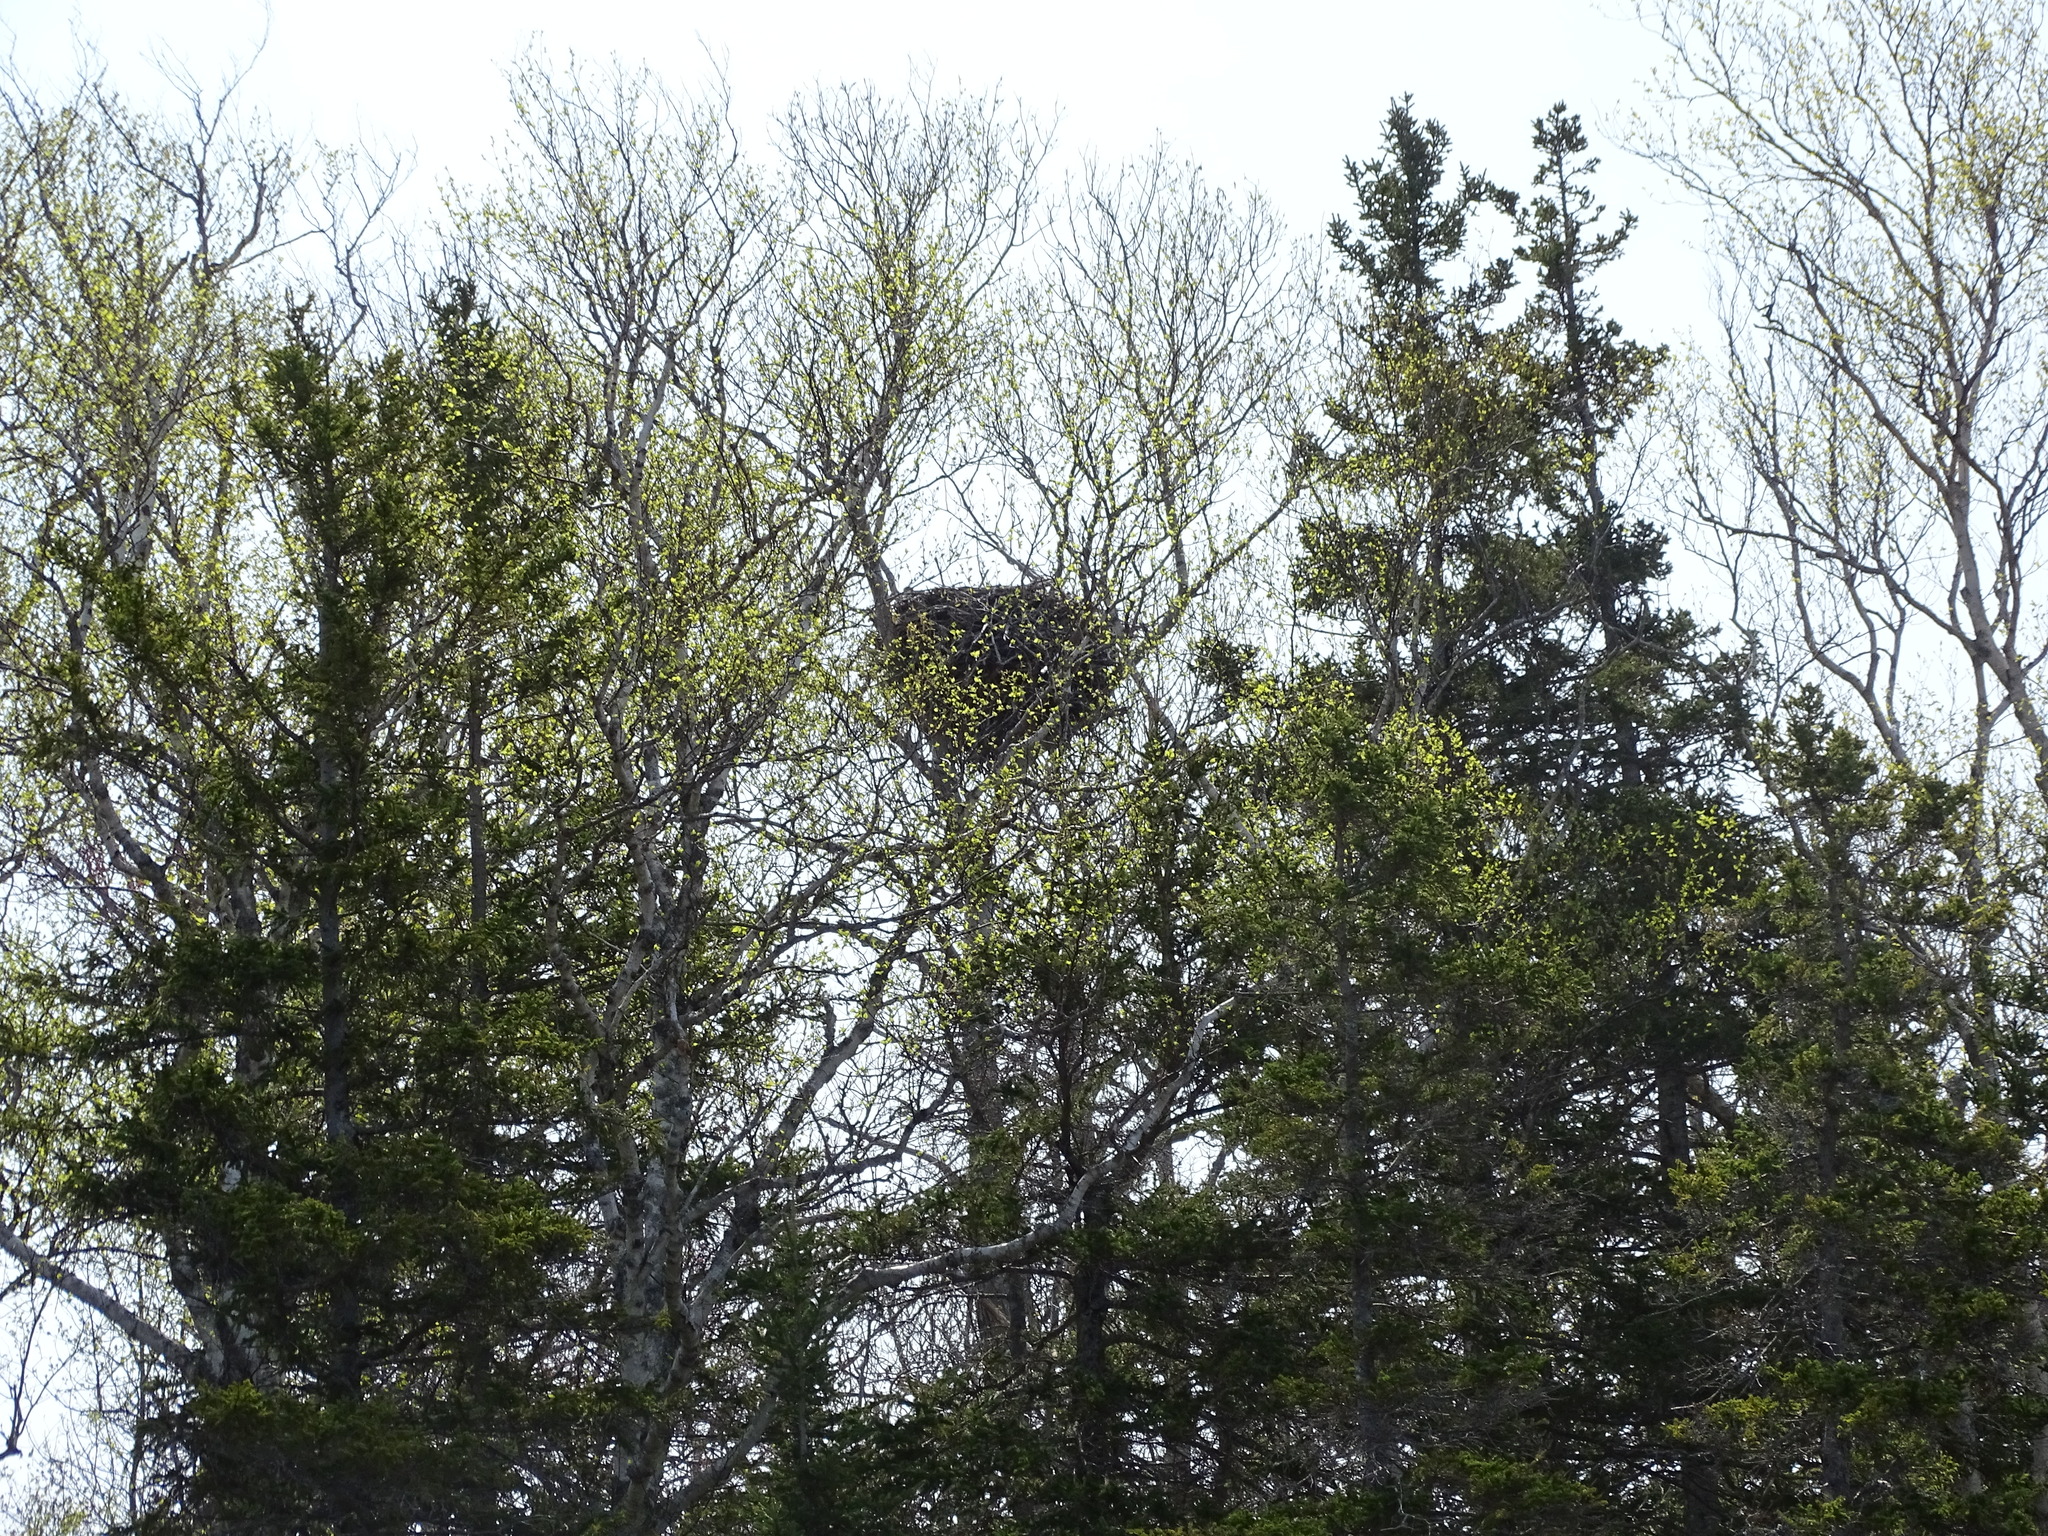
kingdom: Animalia
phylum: Chordata
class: Aves
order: Accipitriformes
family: Accipitridae
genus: Haliaeetus
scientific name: Haliaeetus leucocephalus
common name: Bald eagle
